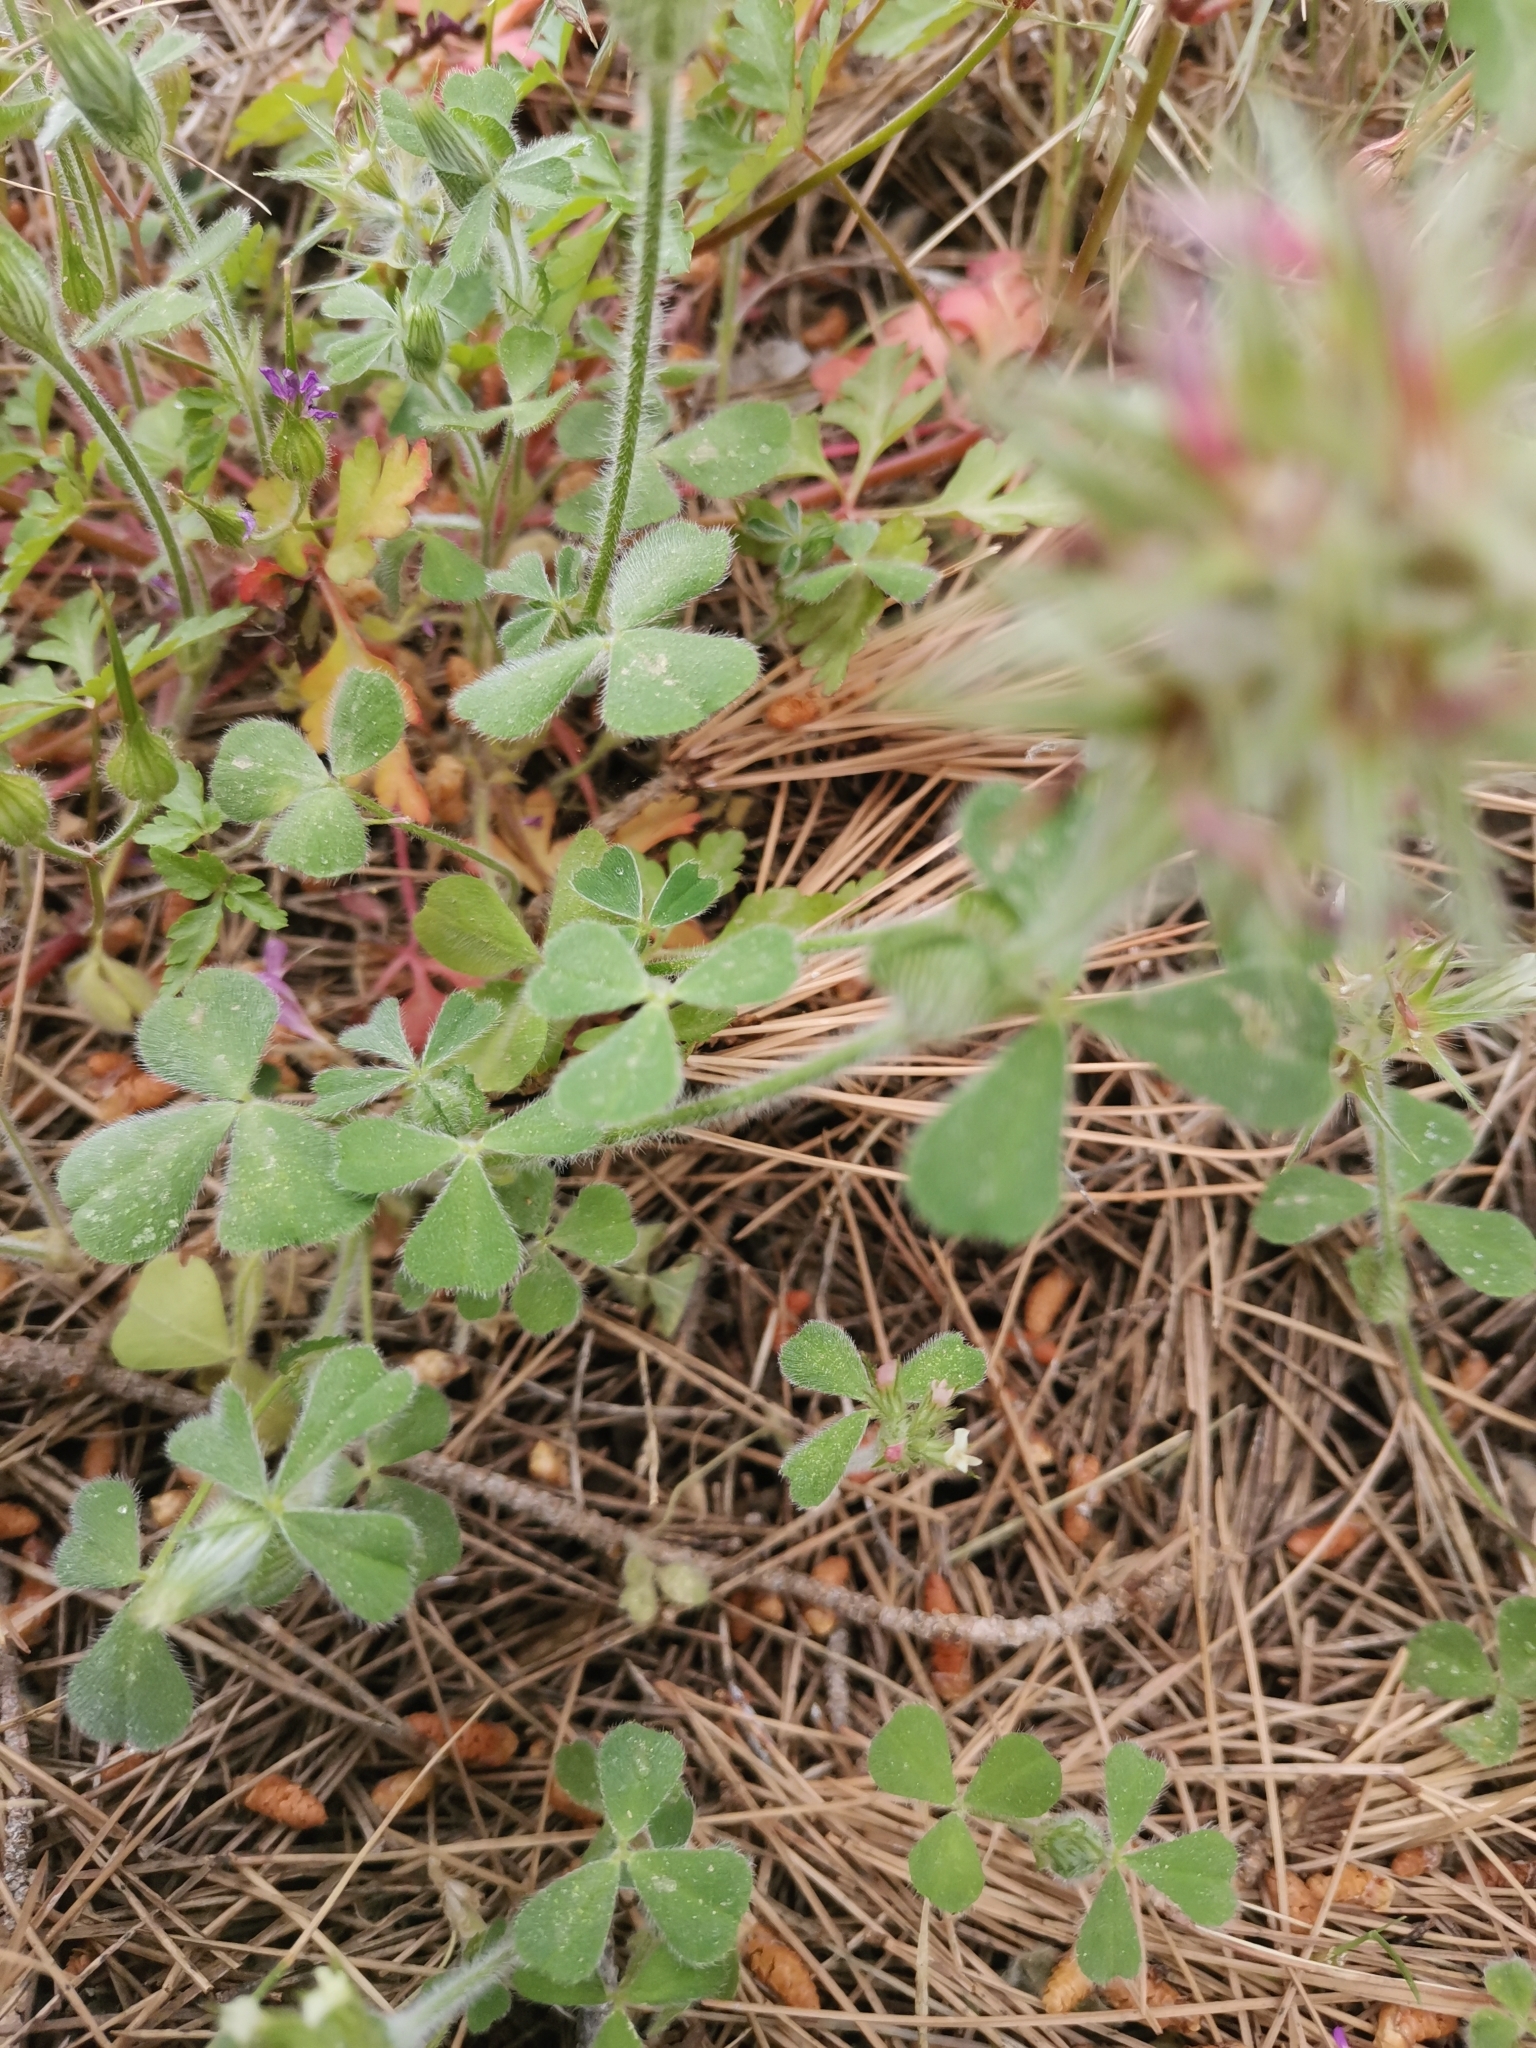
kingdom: Plantae
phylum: Tracheophyta
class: Magnoliopsida
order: Fabales
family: Fabaceae
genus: Trifolium
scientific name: Trifolium stellatum
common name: Starry clover
